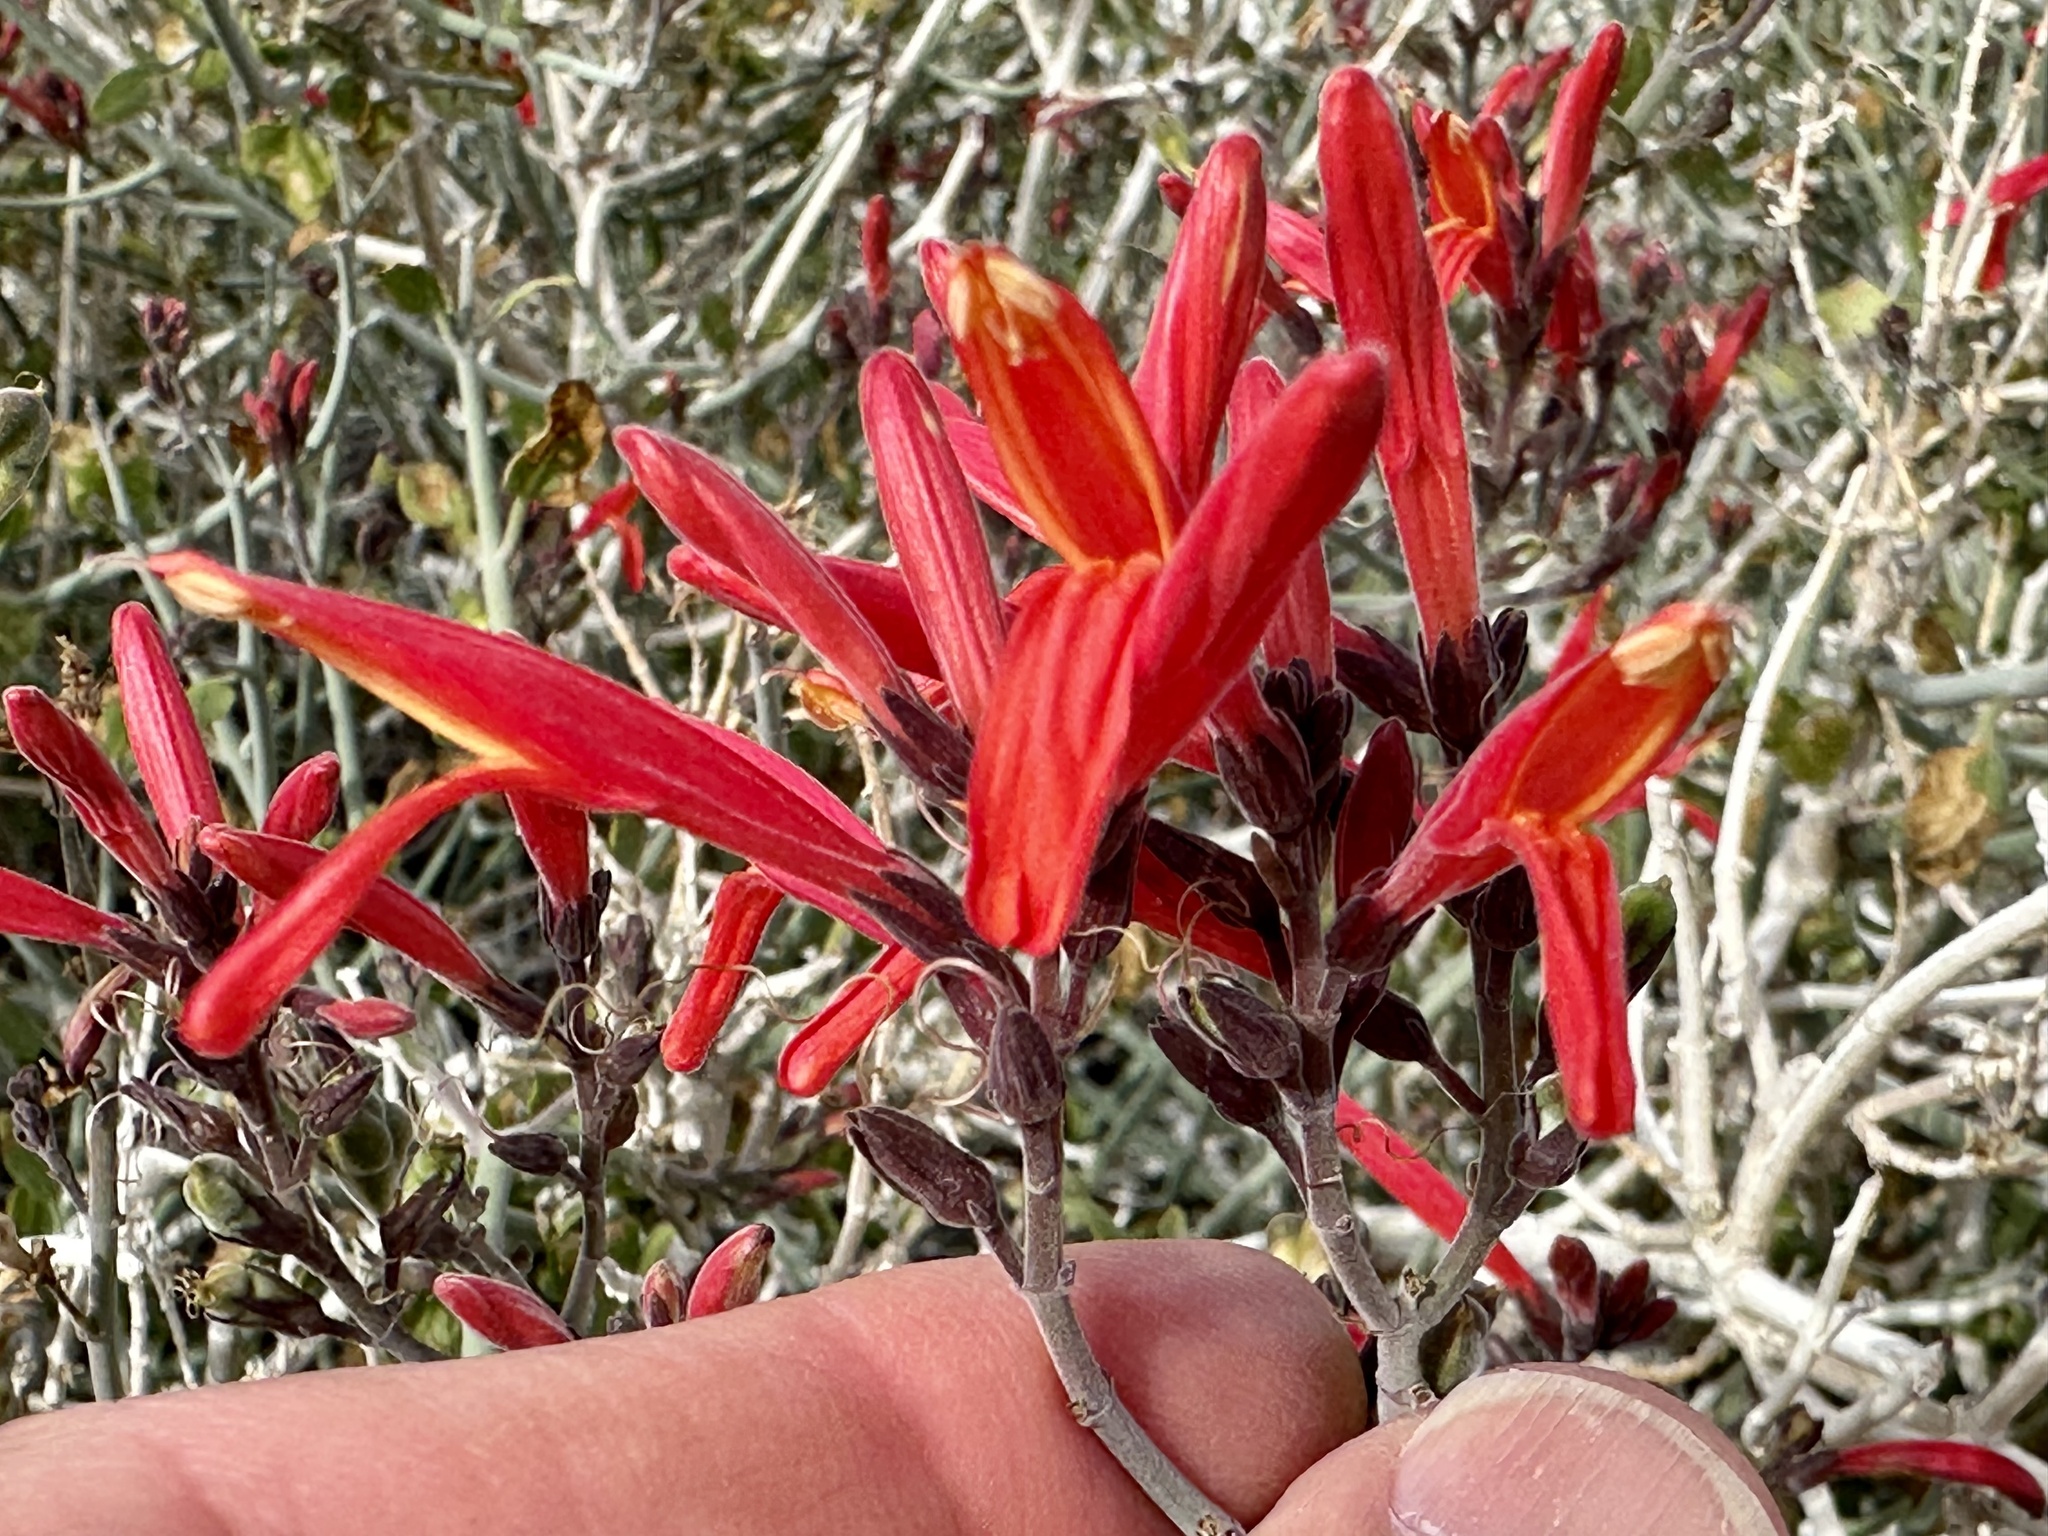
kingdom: Plantae
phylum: Tracheophyta
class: Magnoliopsida
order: Lamiales
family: Acanthaceae
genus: Justicia
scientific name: Justicia californica
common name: Chuparosa-honeysuckle
